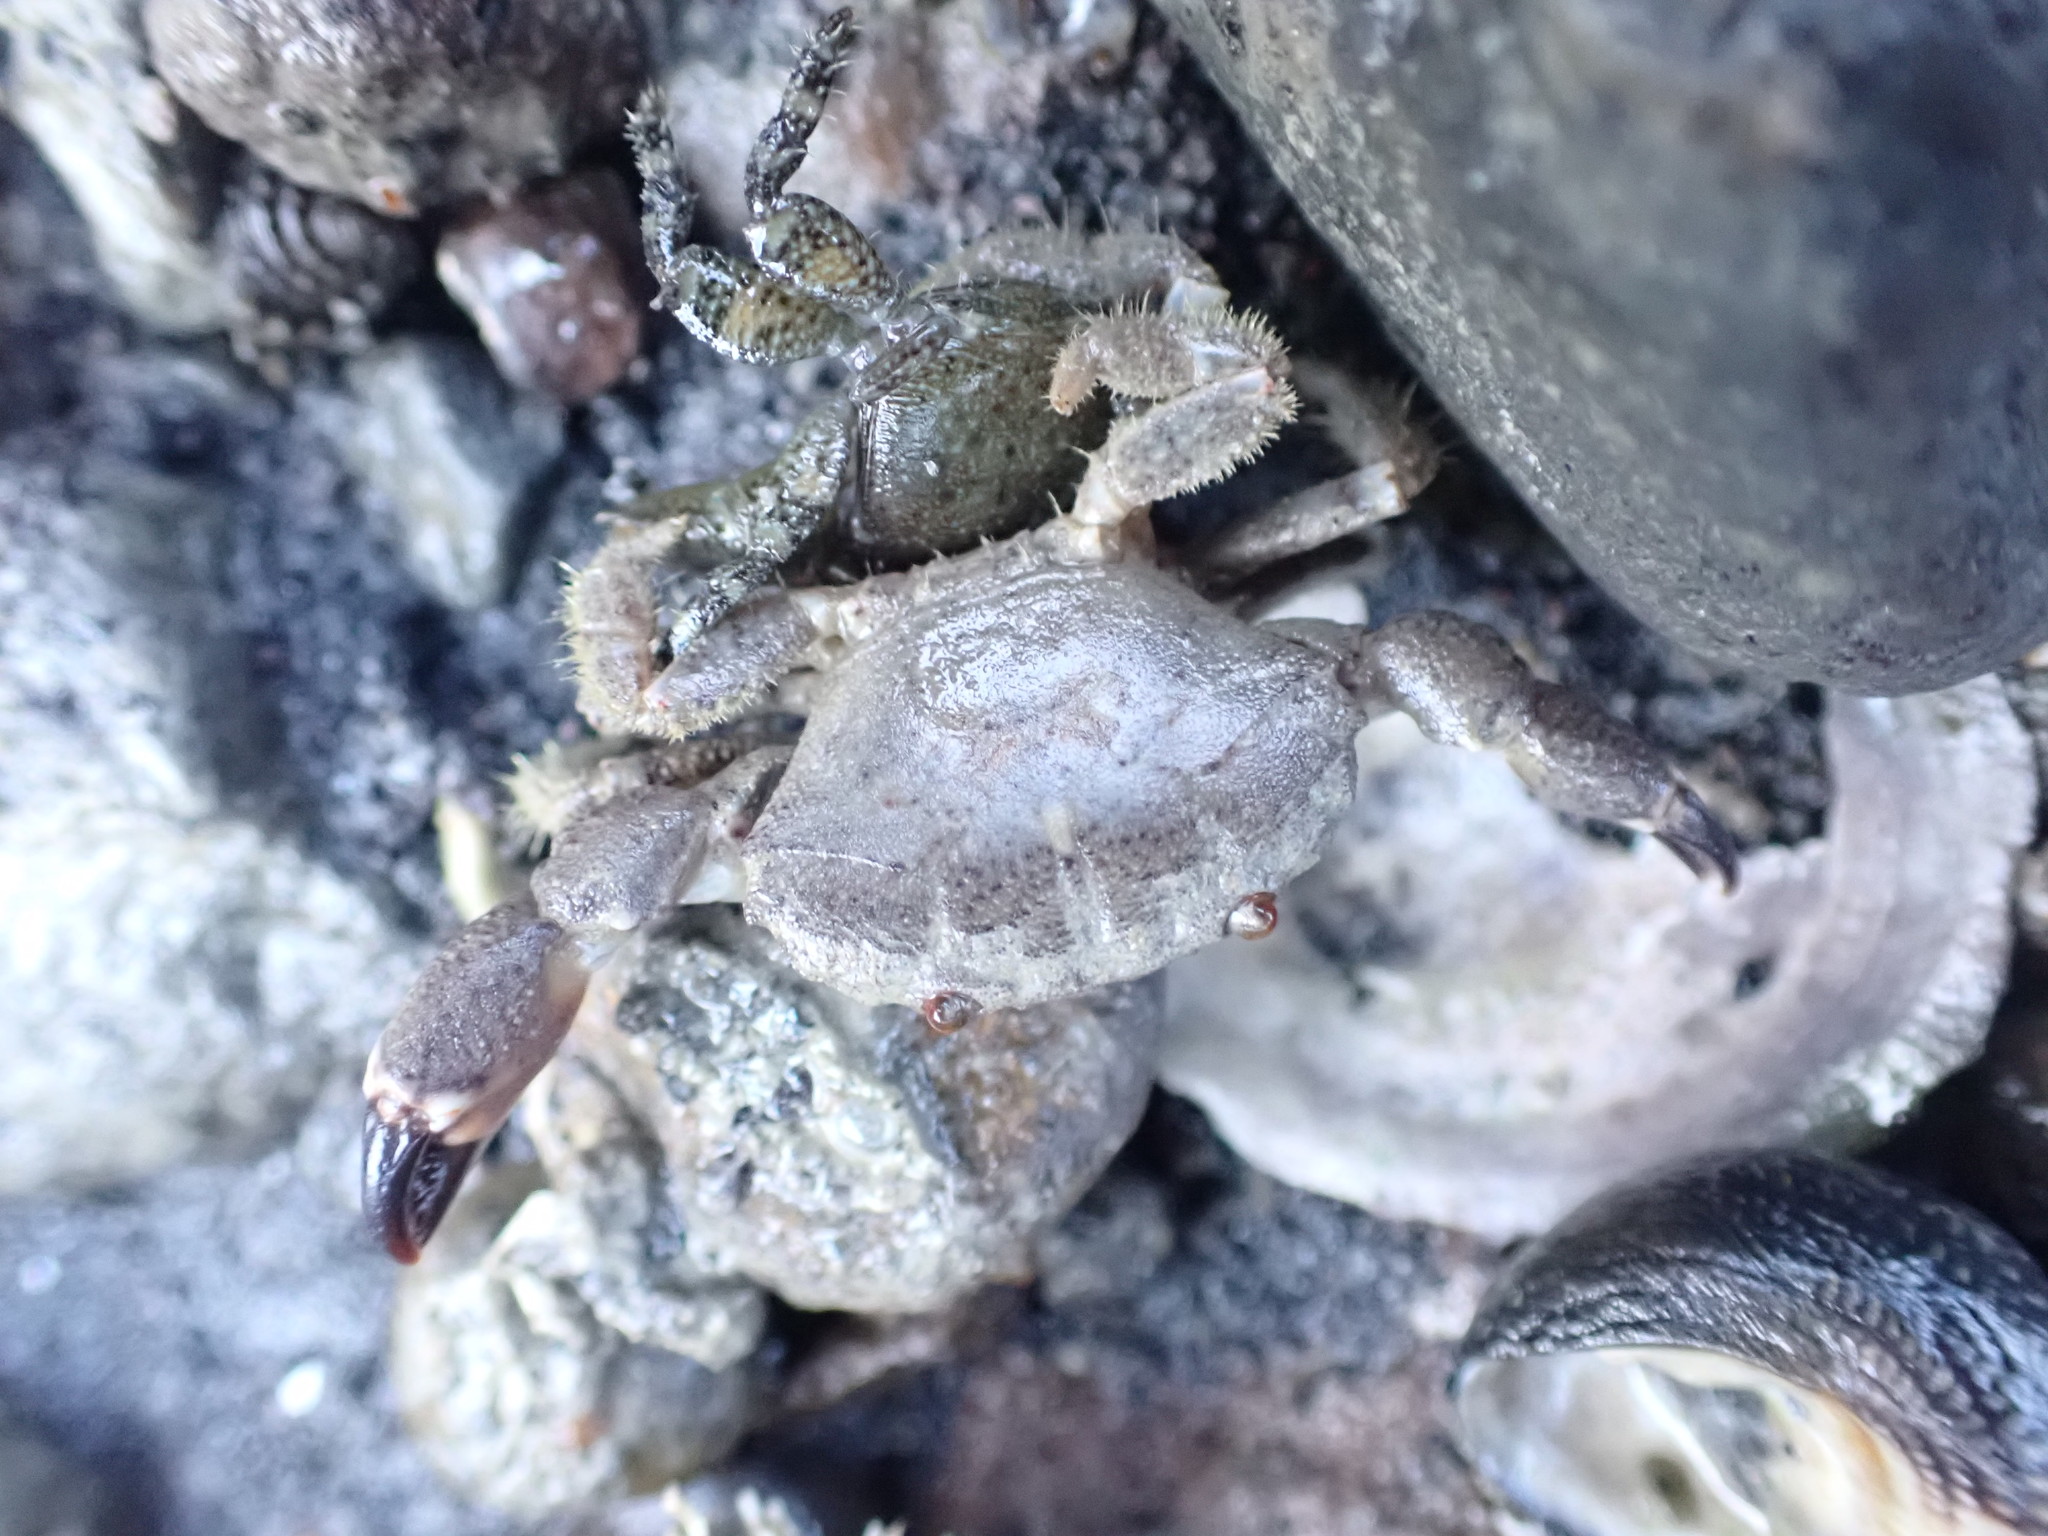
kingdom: Animalia
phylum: Arthropoda
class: Malacostraca
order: Decapoda
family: Oziidae
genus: Ozius
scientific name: Ozius deplanatus
